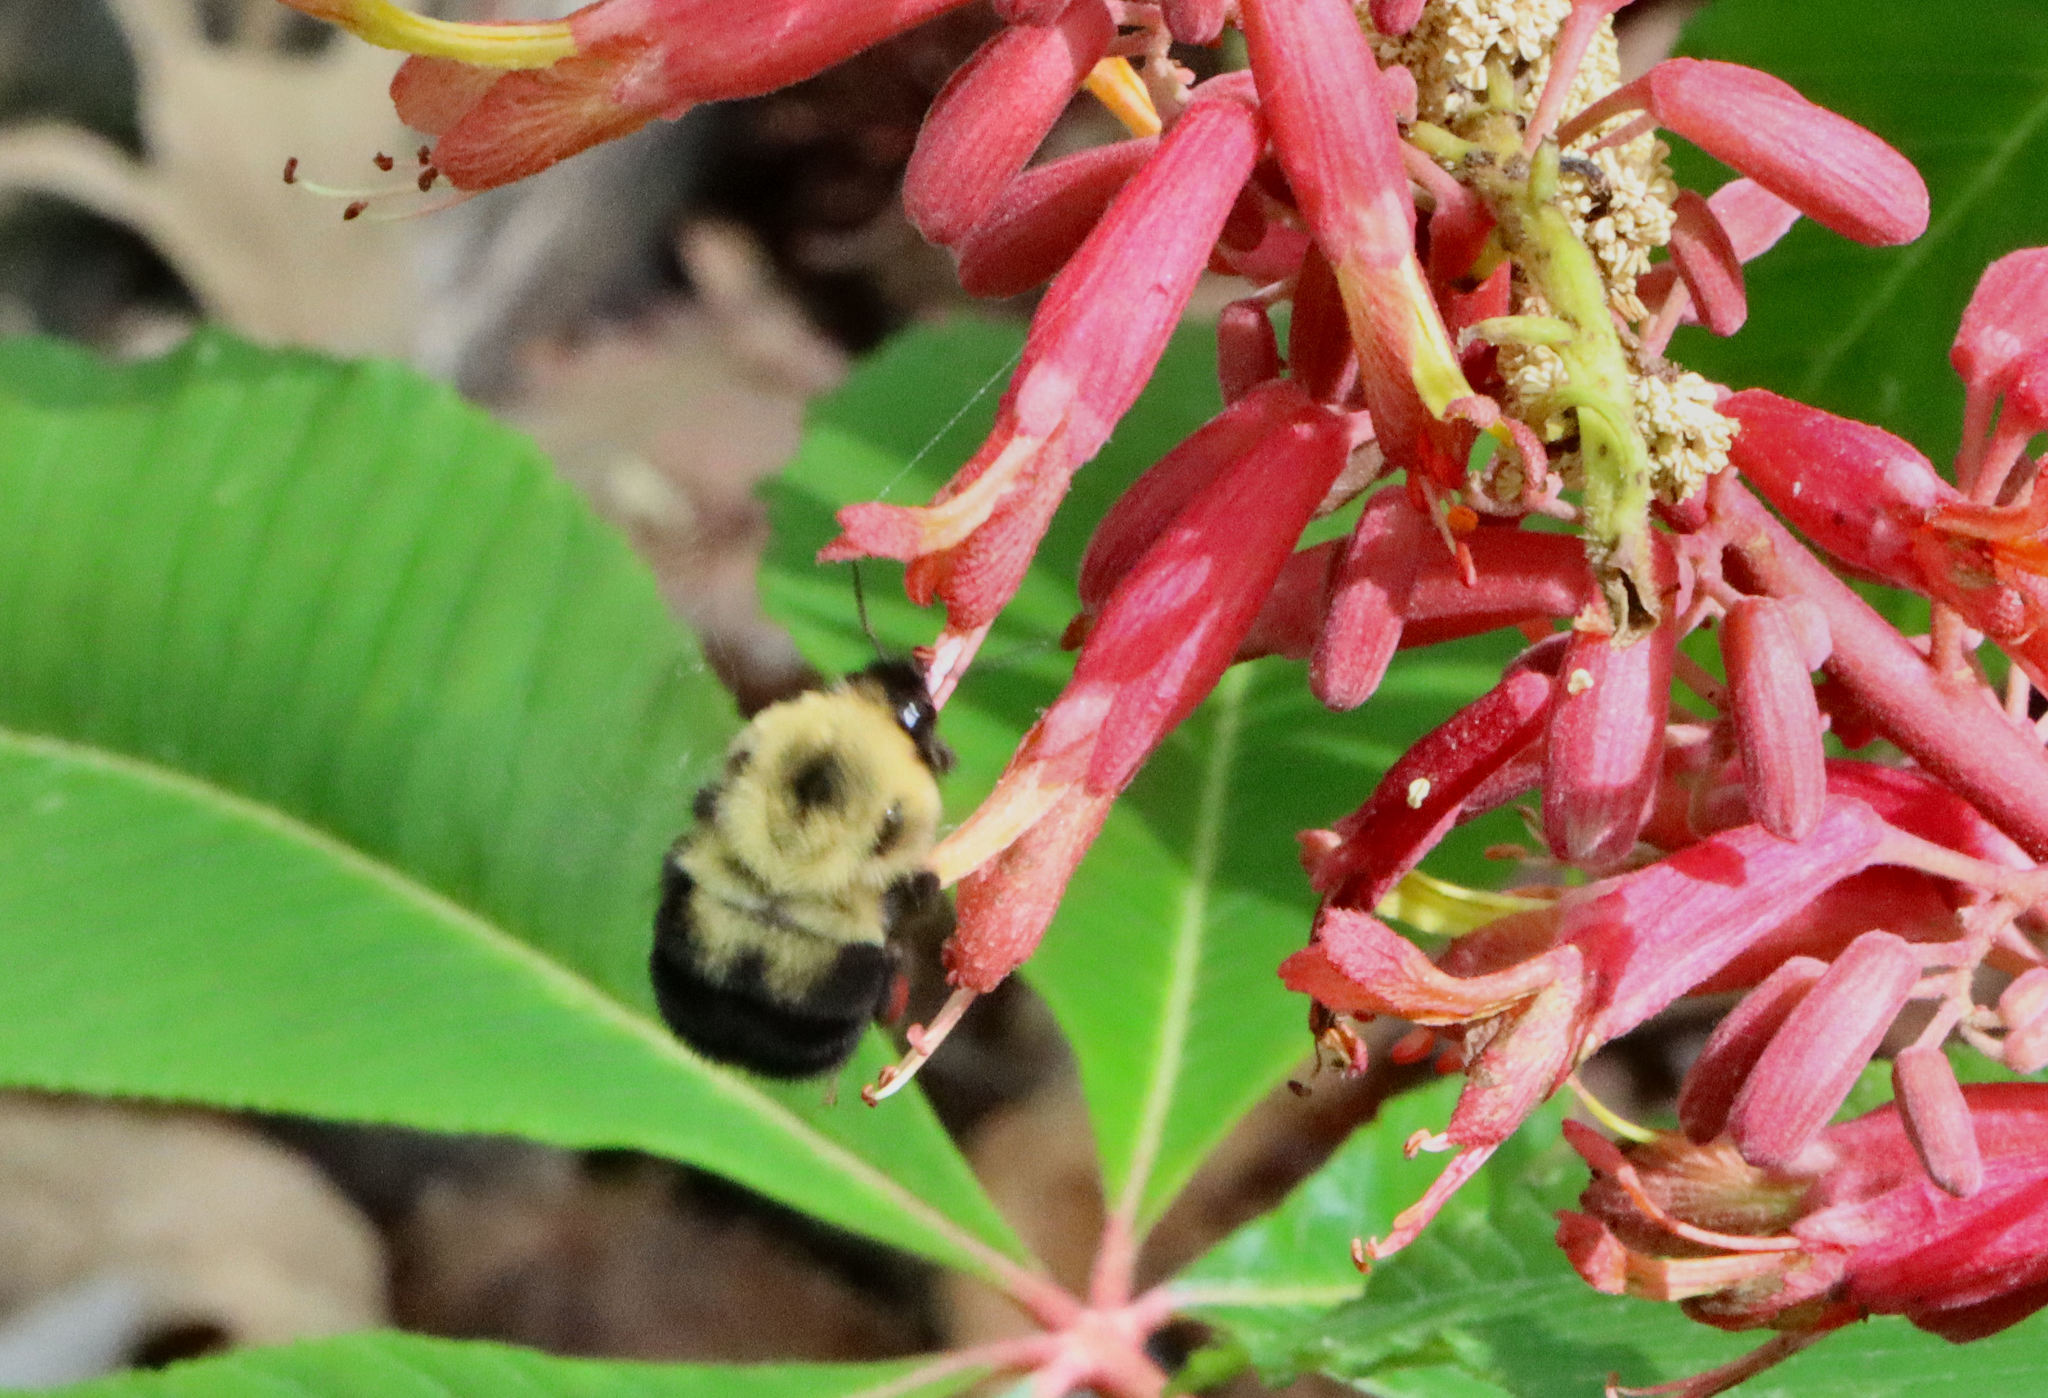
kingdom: Animalia
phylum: Arthropoda
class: Insecta
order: Hymenoptera
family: Apidae
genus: Bombus
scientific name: Bombus bimaculatus
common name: Two-spotted bumble bee
